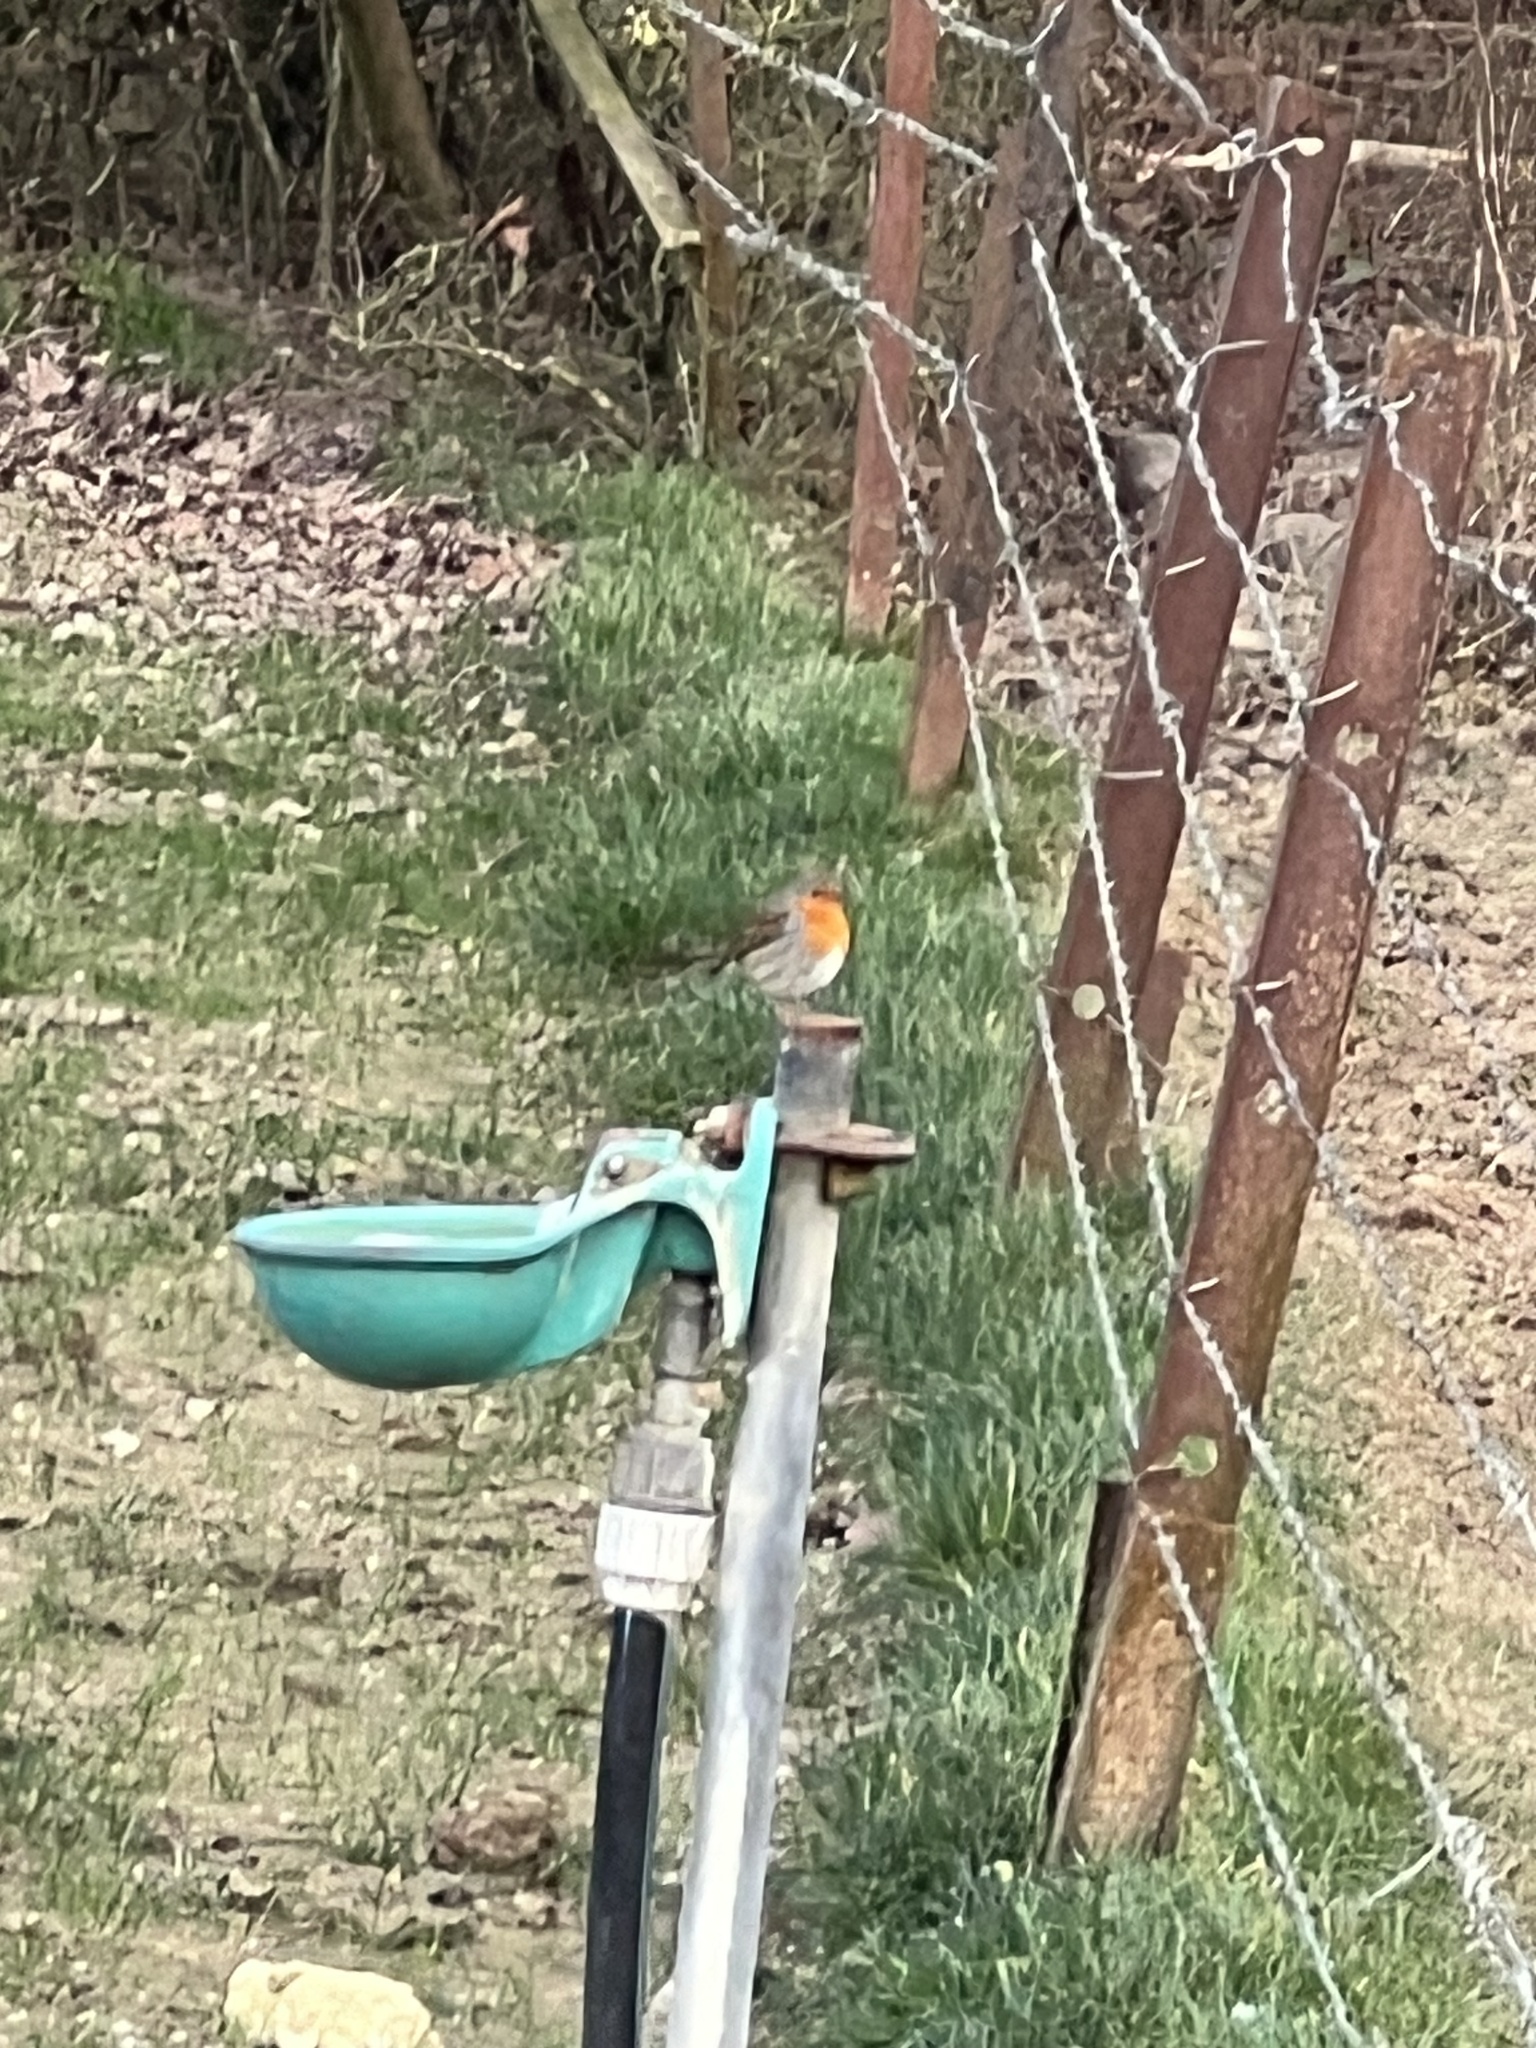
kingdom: Animalia
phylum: Chordata
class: Aves
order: Passeriformes
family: Muscicapidae
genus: Erithacus
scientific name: Erithacus rubecula
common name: European robin
